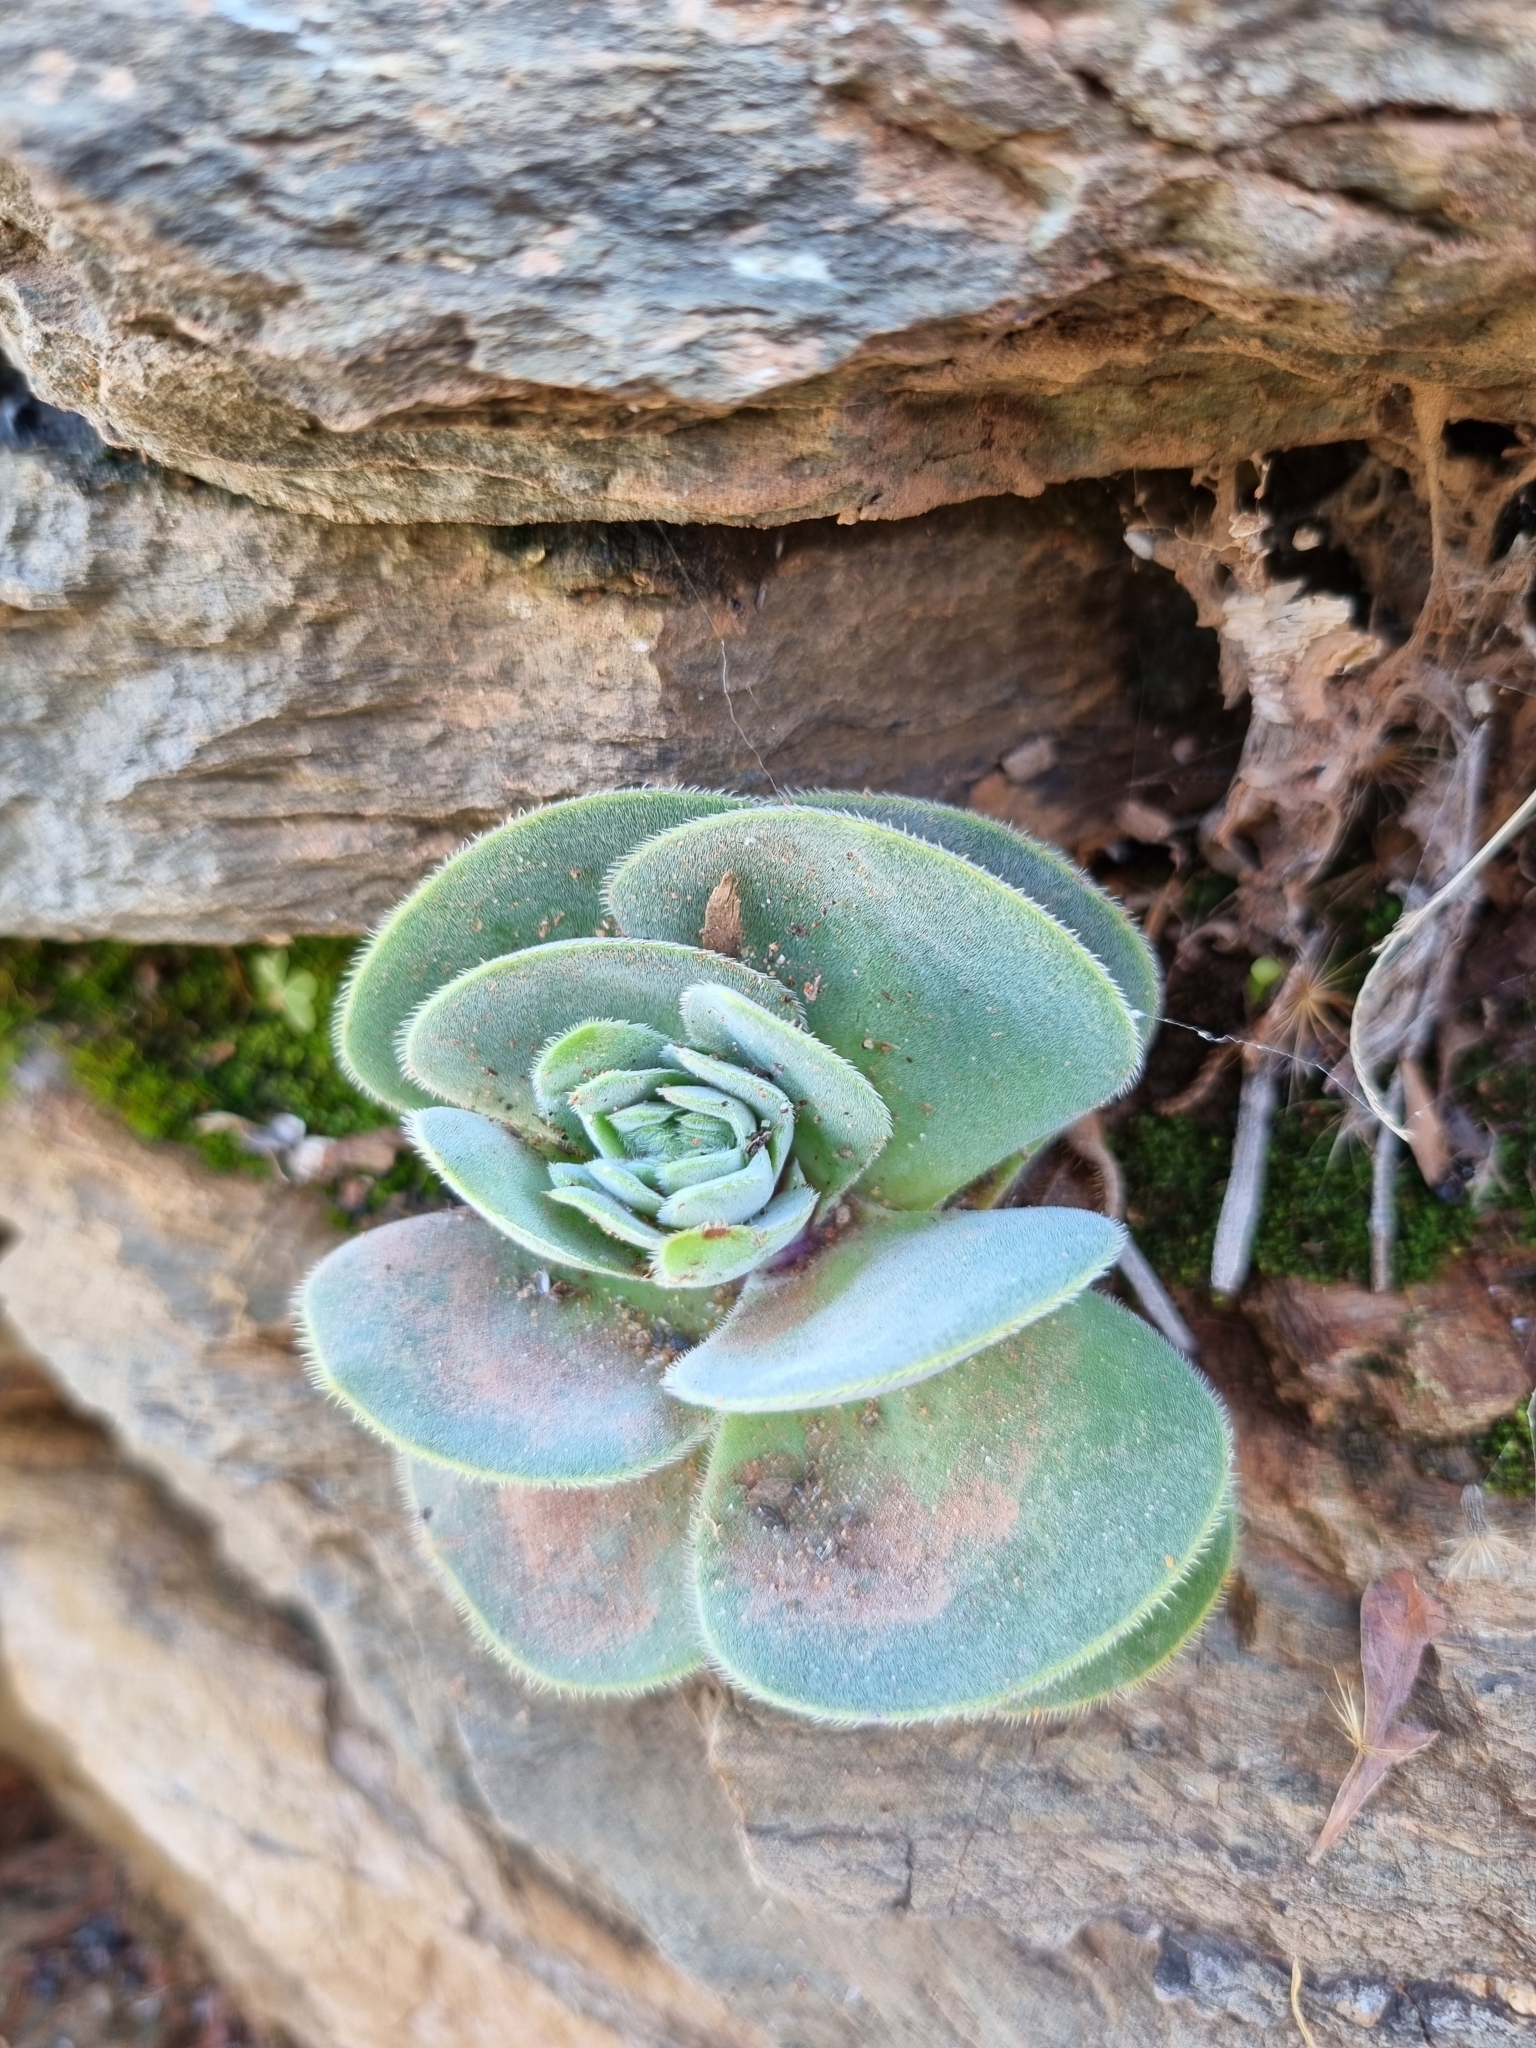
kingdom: Plantae
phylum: Tracheophyta
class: Magnoliopsida
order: Saxifragales
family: Crassulaceae
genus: Crassula
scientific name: Crassula tomentosa
